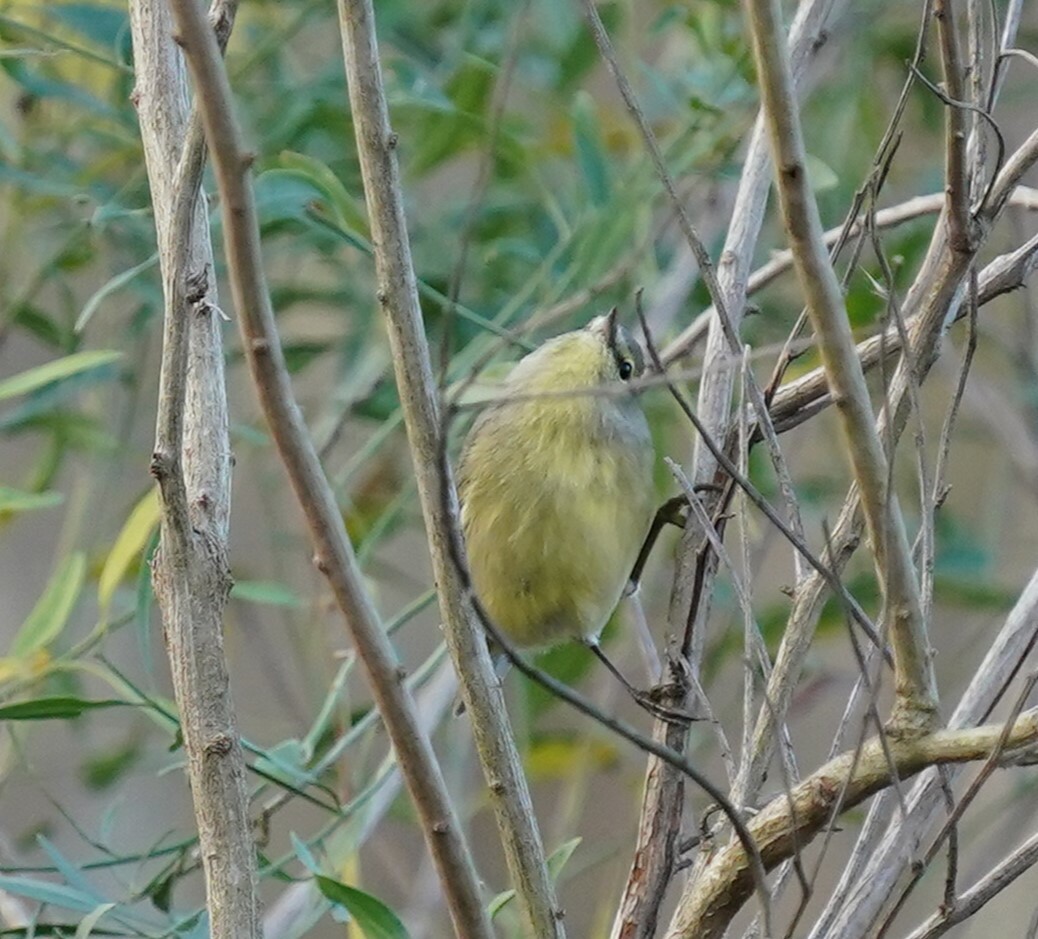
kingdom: Animalia
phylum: Chordata
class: Aves
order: Passeriformes
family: Parulidae
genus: Leiothlypis
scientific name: Leiothlypis celata
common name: Orange-crowned warbler
